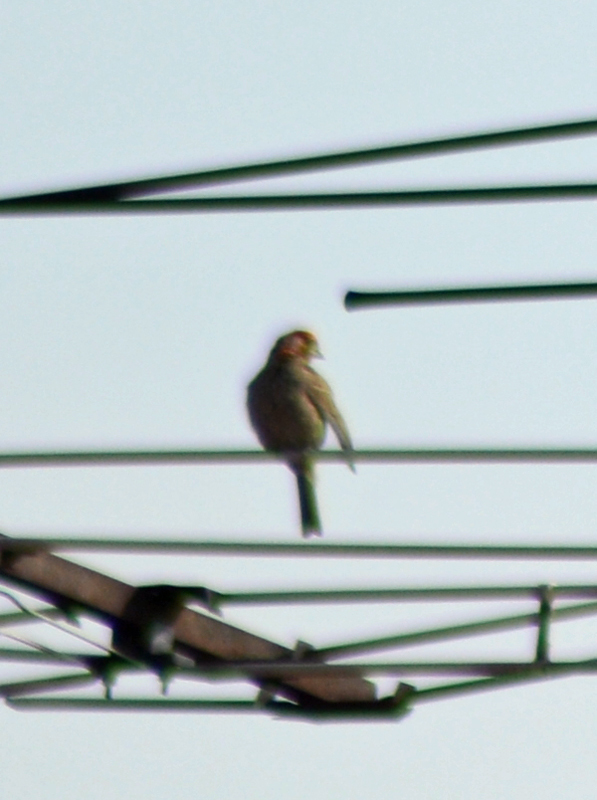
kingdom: Animalia
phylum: Chordata
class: Aves
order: Passeriformes
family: Fringillidae
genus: Haemorhous
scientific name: Haemorhous mexicanus
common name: House finch
